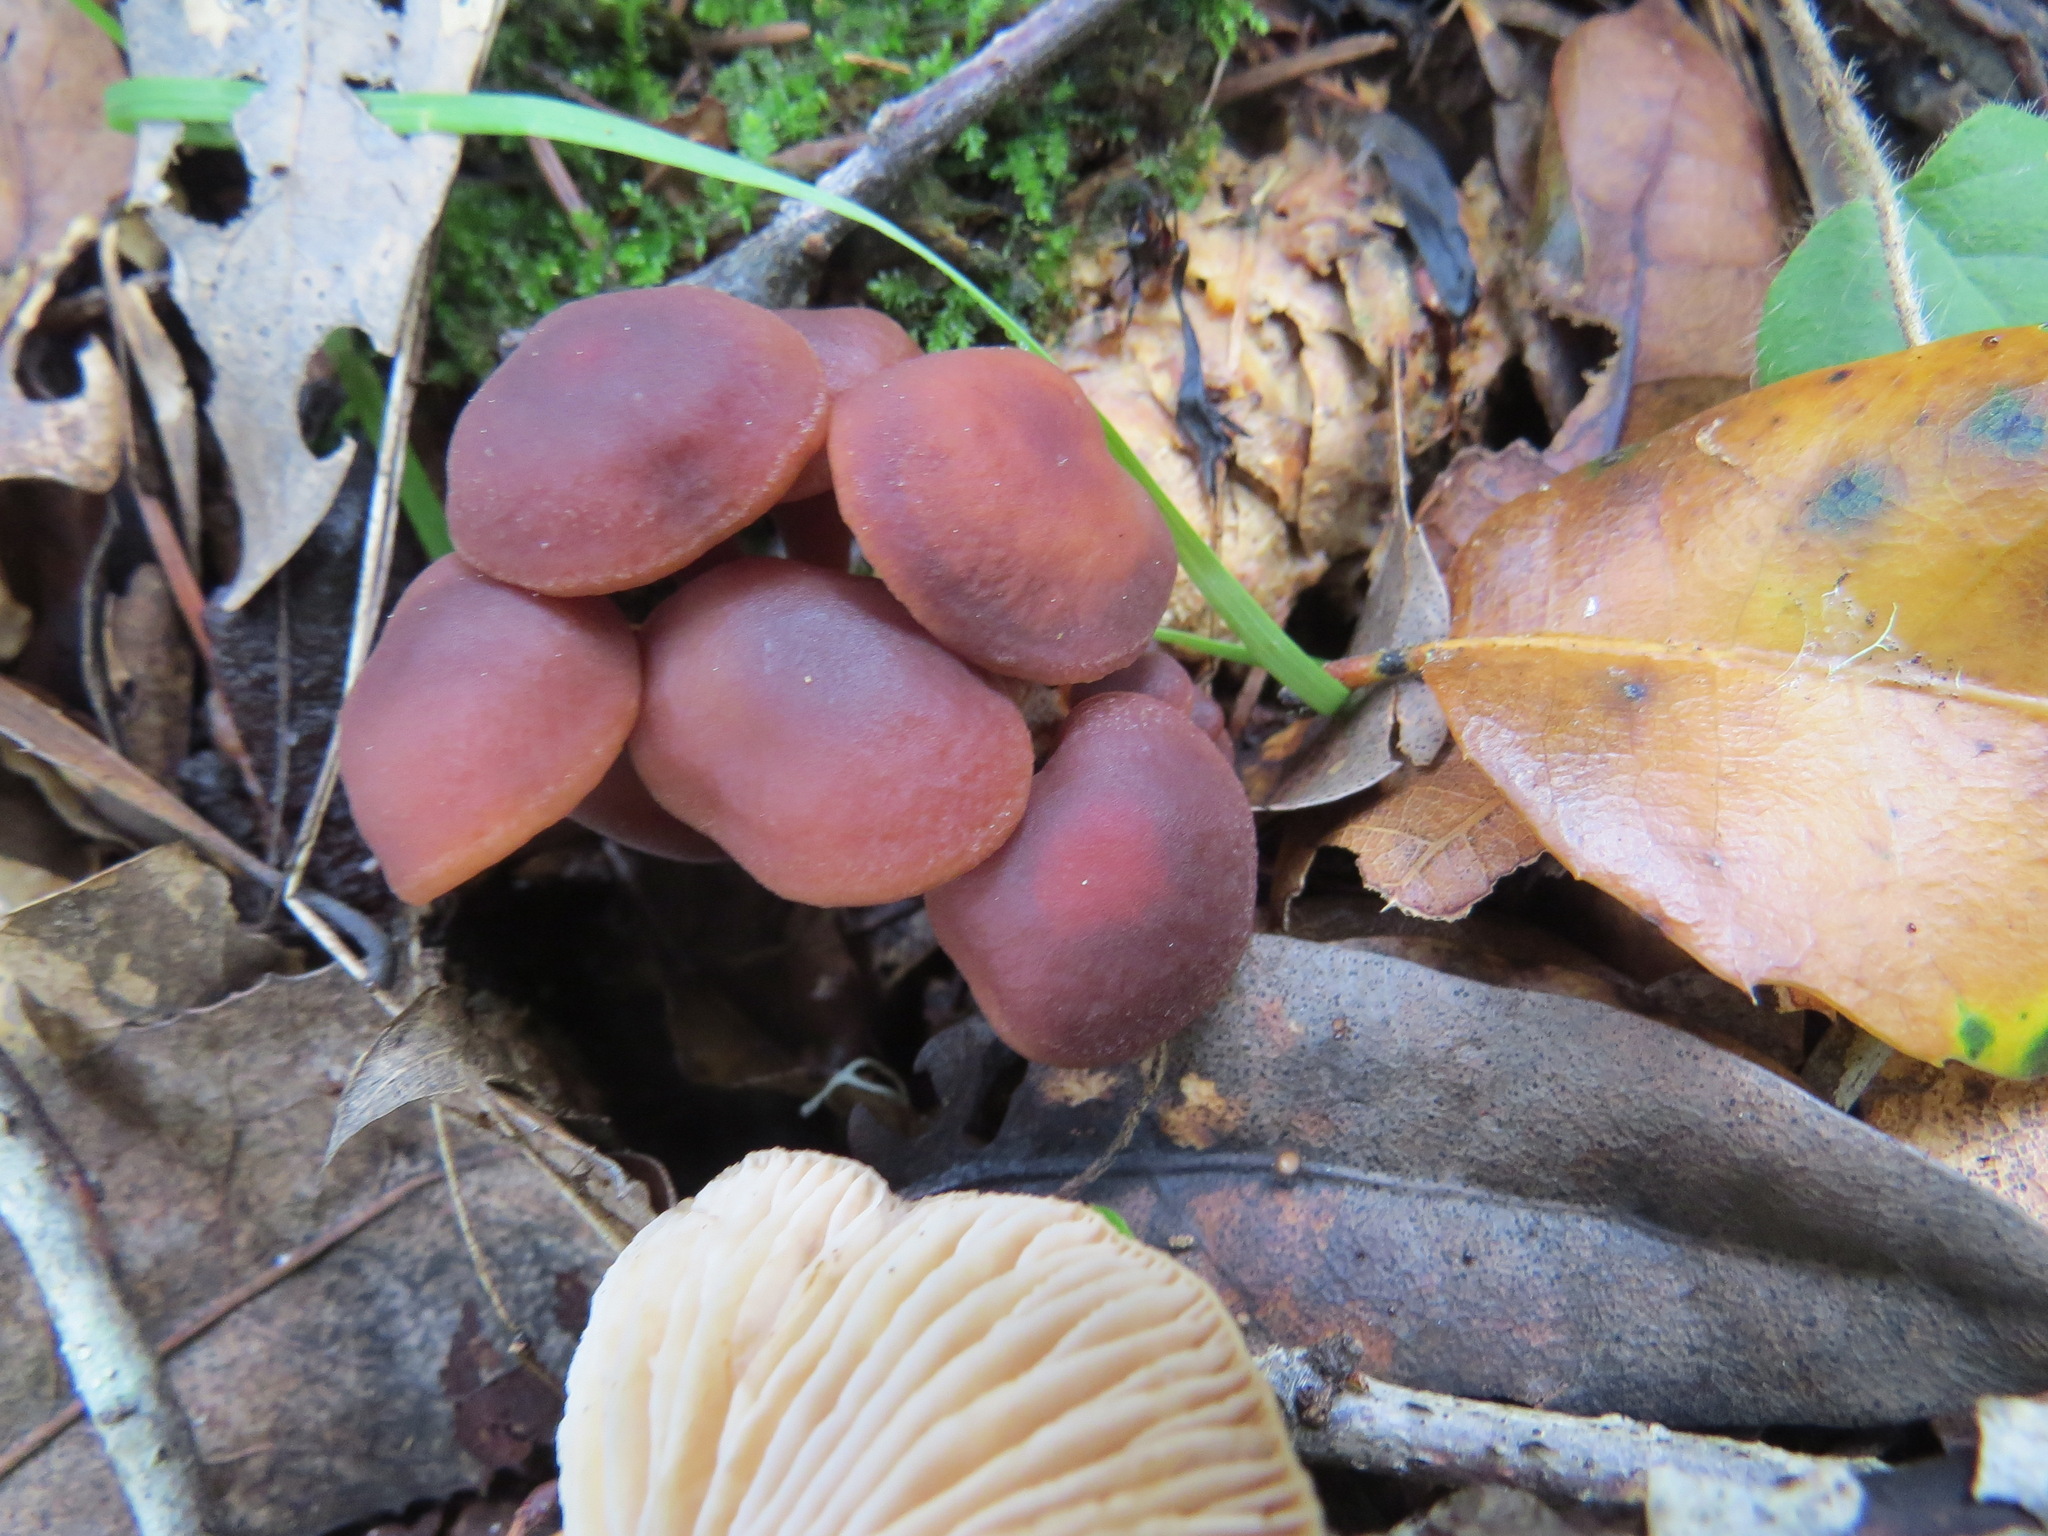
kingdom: Fungi
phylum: Basidiomycota
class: Agaricomycetes
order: Agaricales
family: Omphalotaceae
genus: Gymnopus
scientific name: Gymnopus brassicolens
